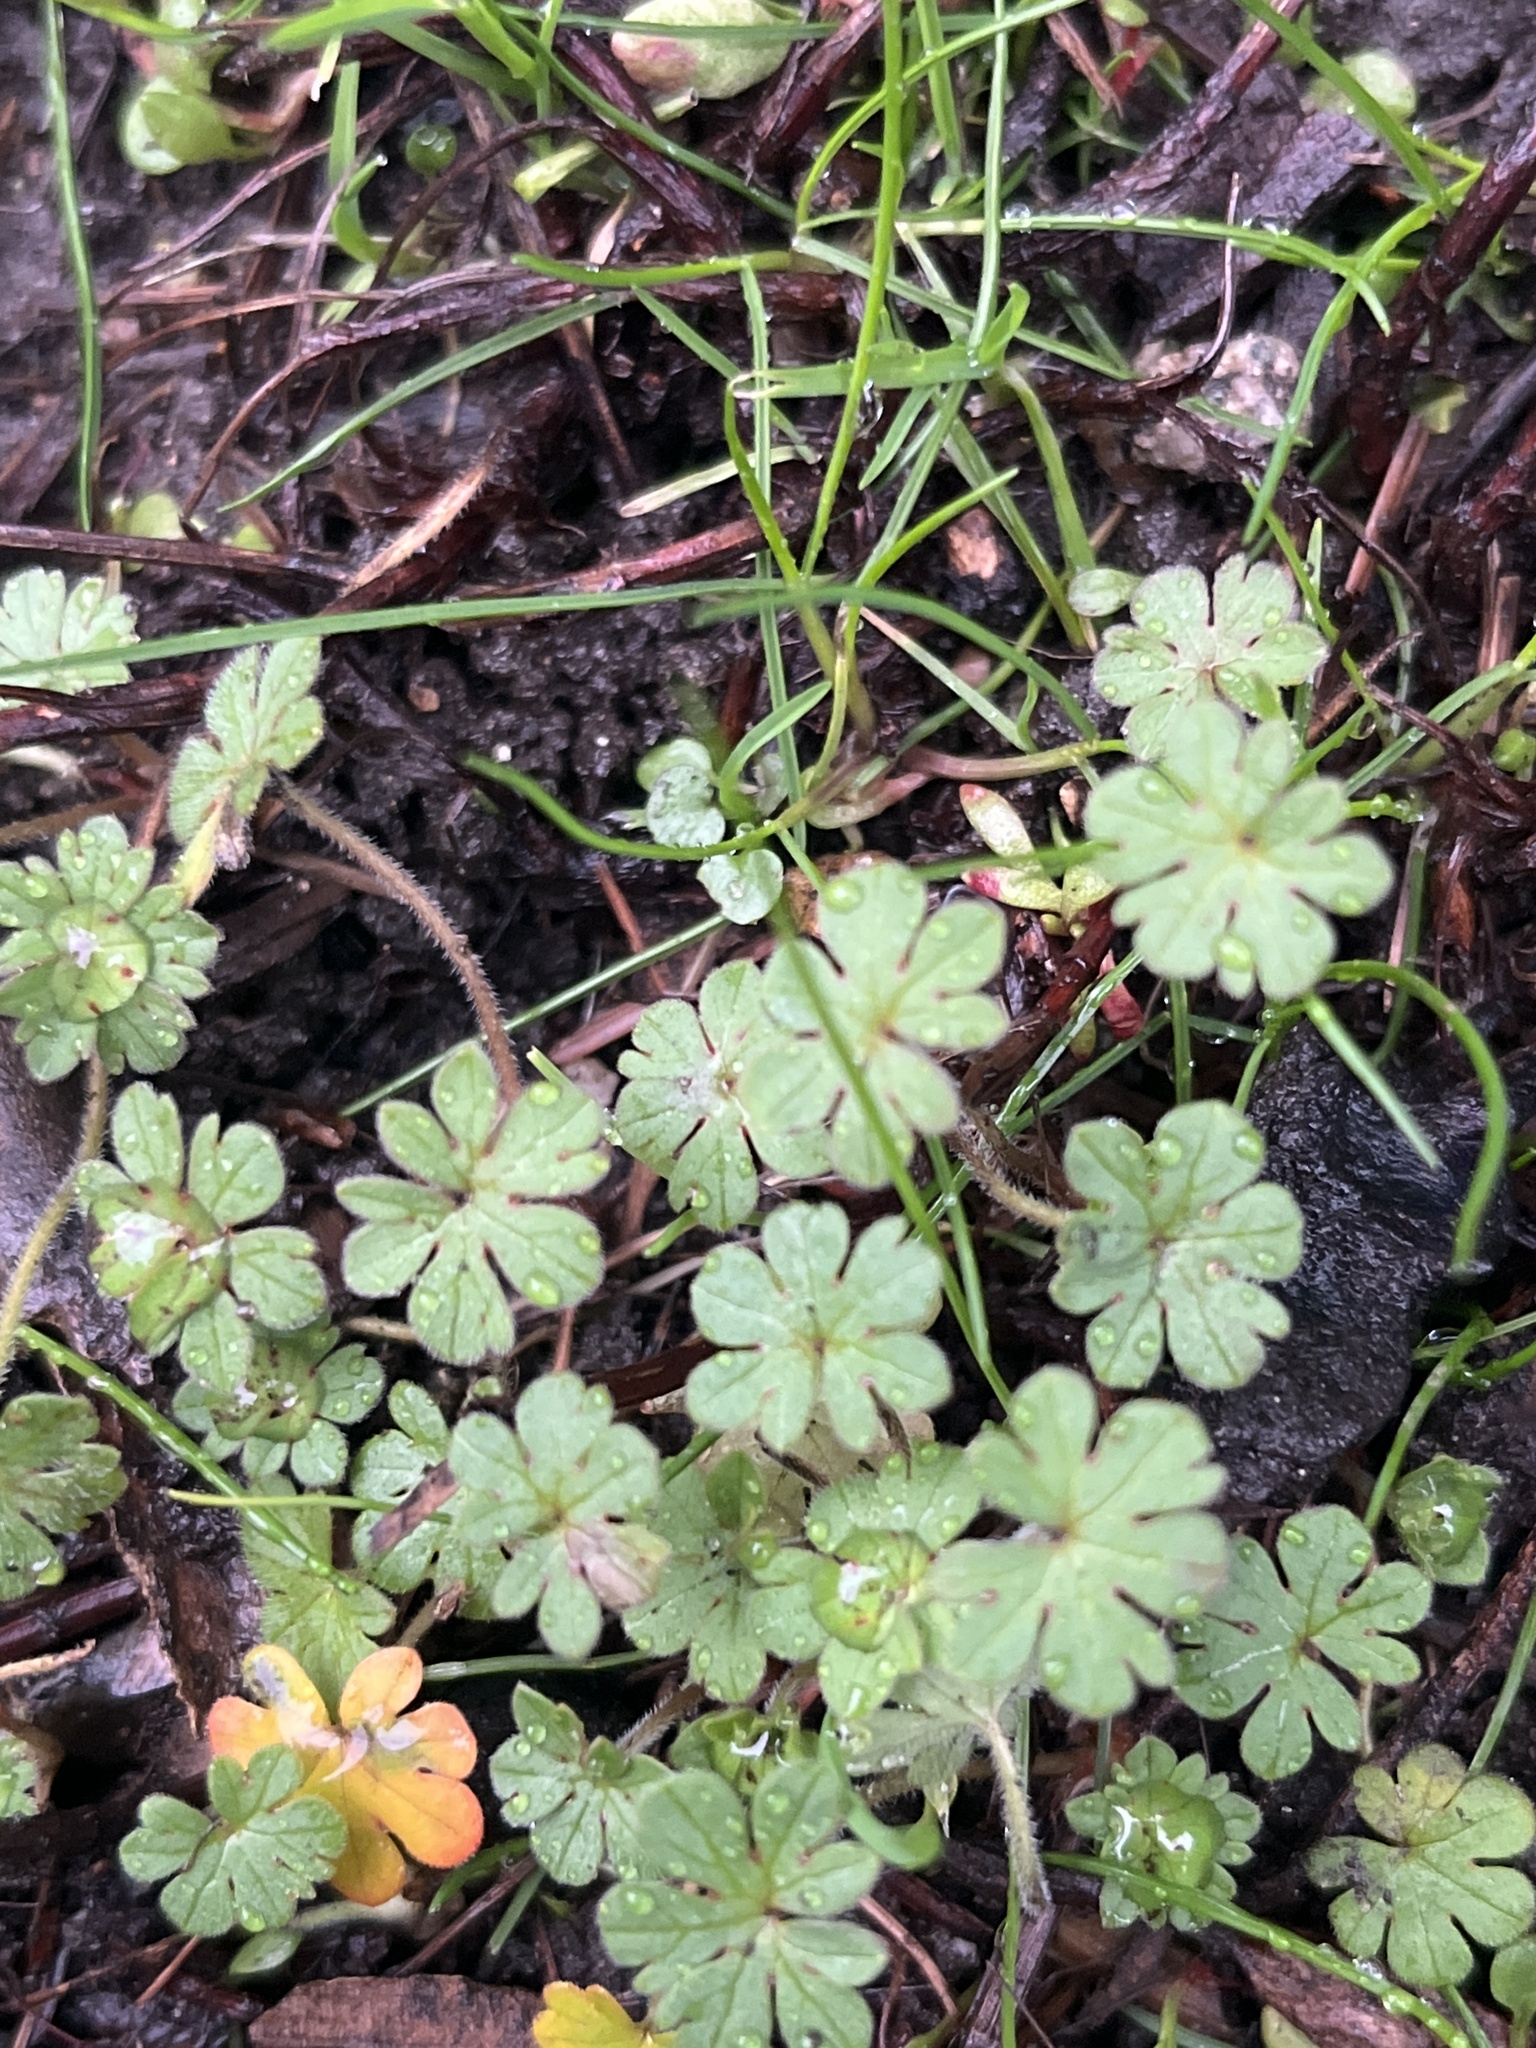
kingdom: Plantae
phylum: Tracheophyta
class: Magnoliopsida
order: Geraniales
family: Geraniaceae
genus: Geranium
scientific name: Geranium molle
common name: Dove's-foot crane's-bill
